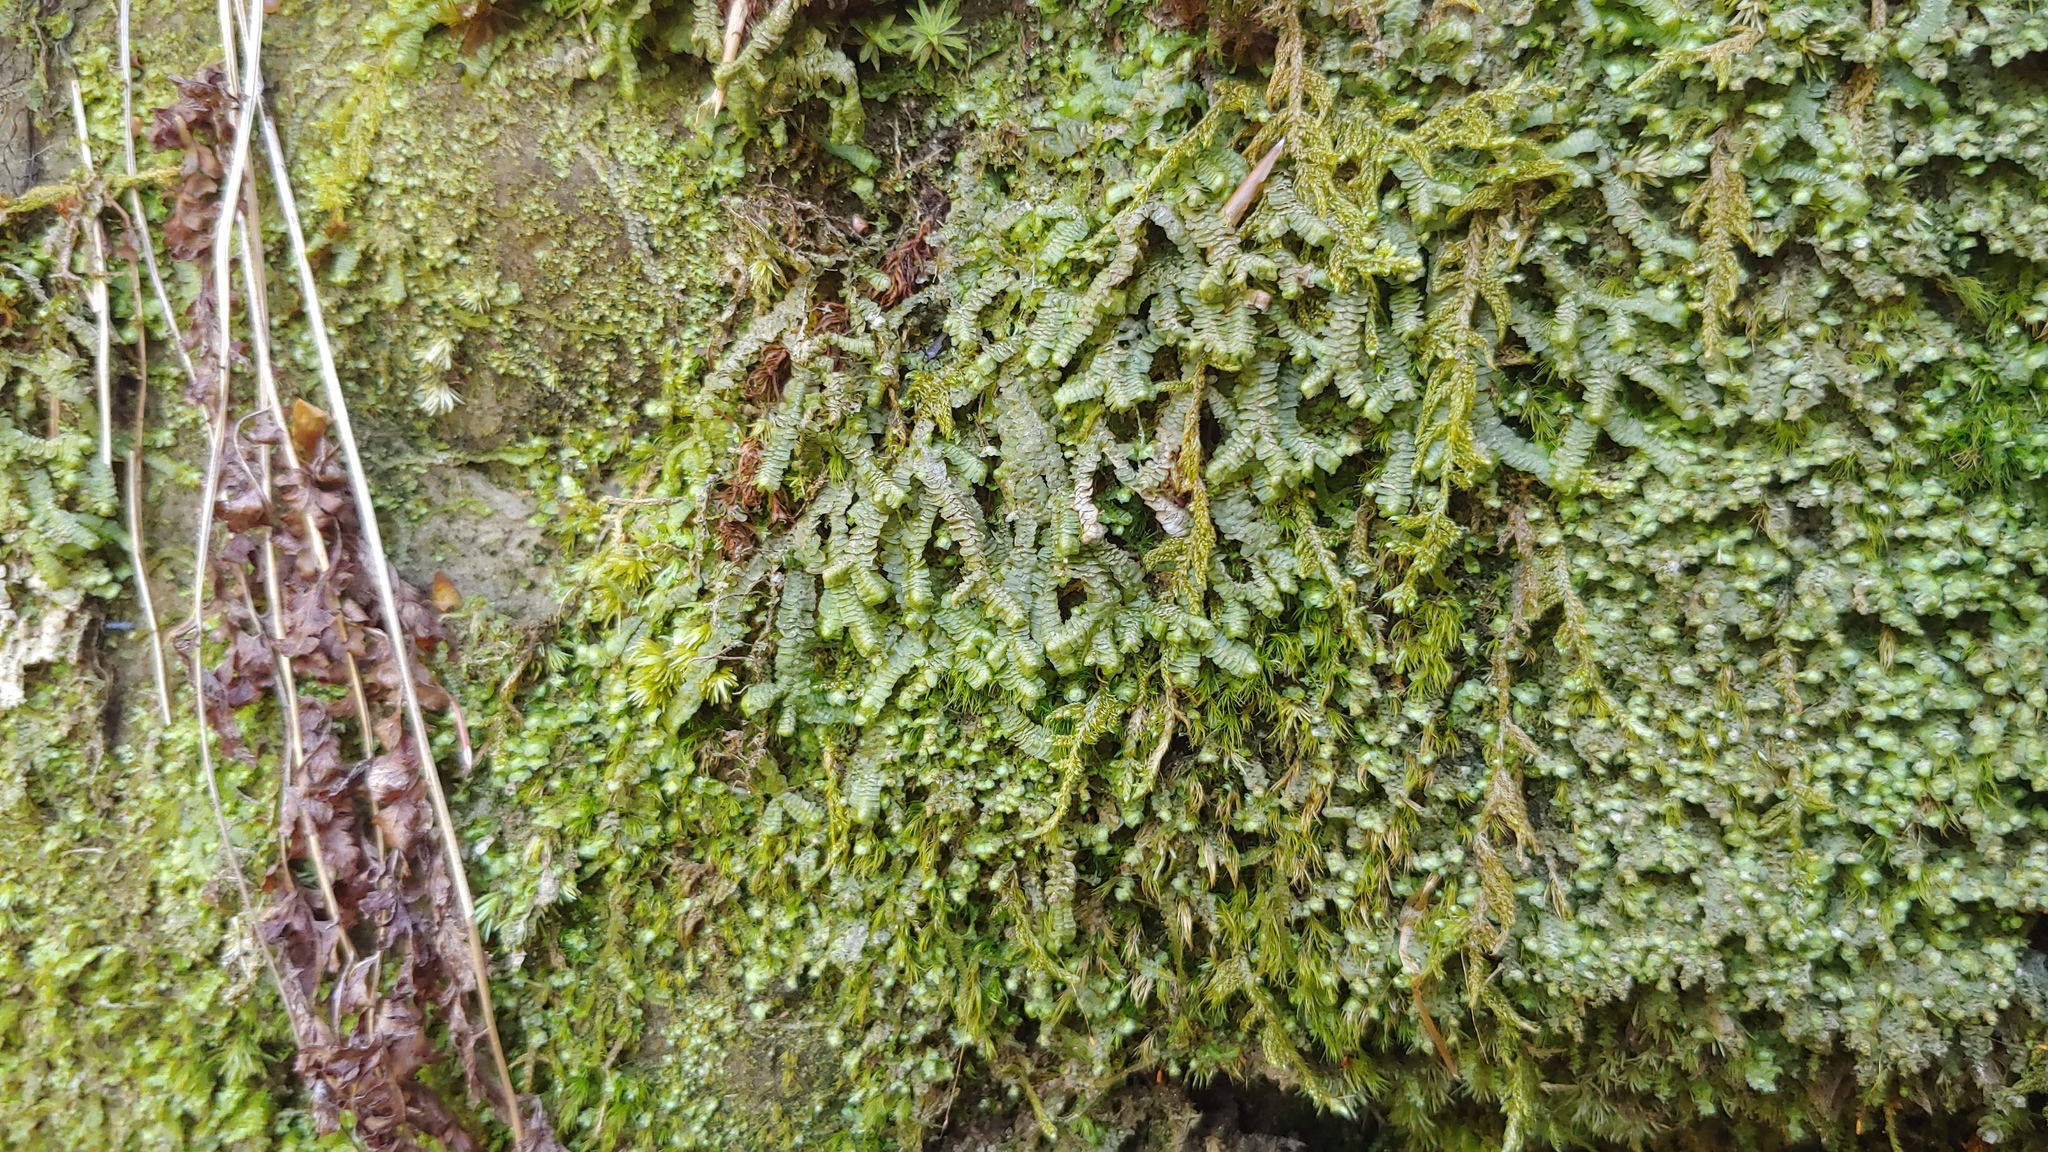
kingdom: Plantae
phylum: Marchantiophyta
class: Jungermanniopsida
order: Jungermanniales
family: Lepidoziaceae
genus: Bazzania
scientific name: Bazzania trilobata
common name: Three-lobed whipwort
